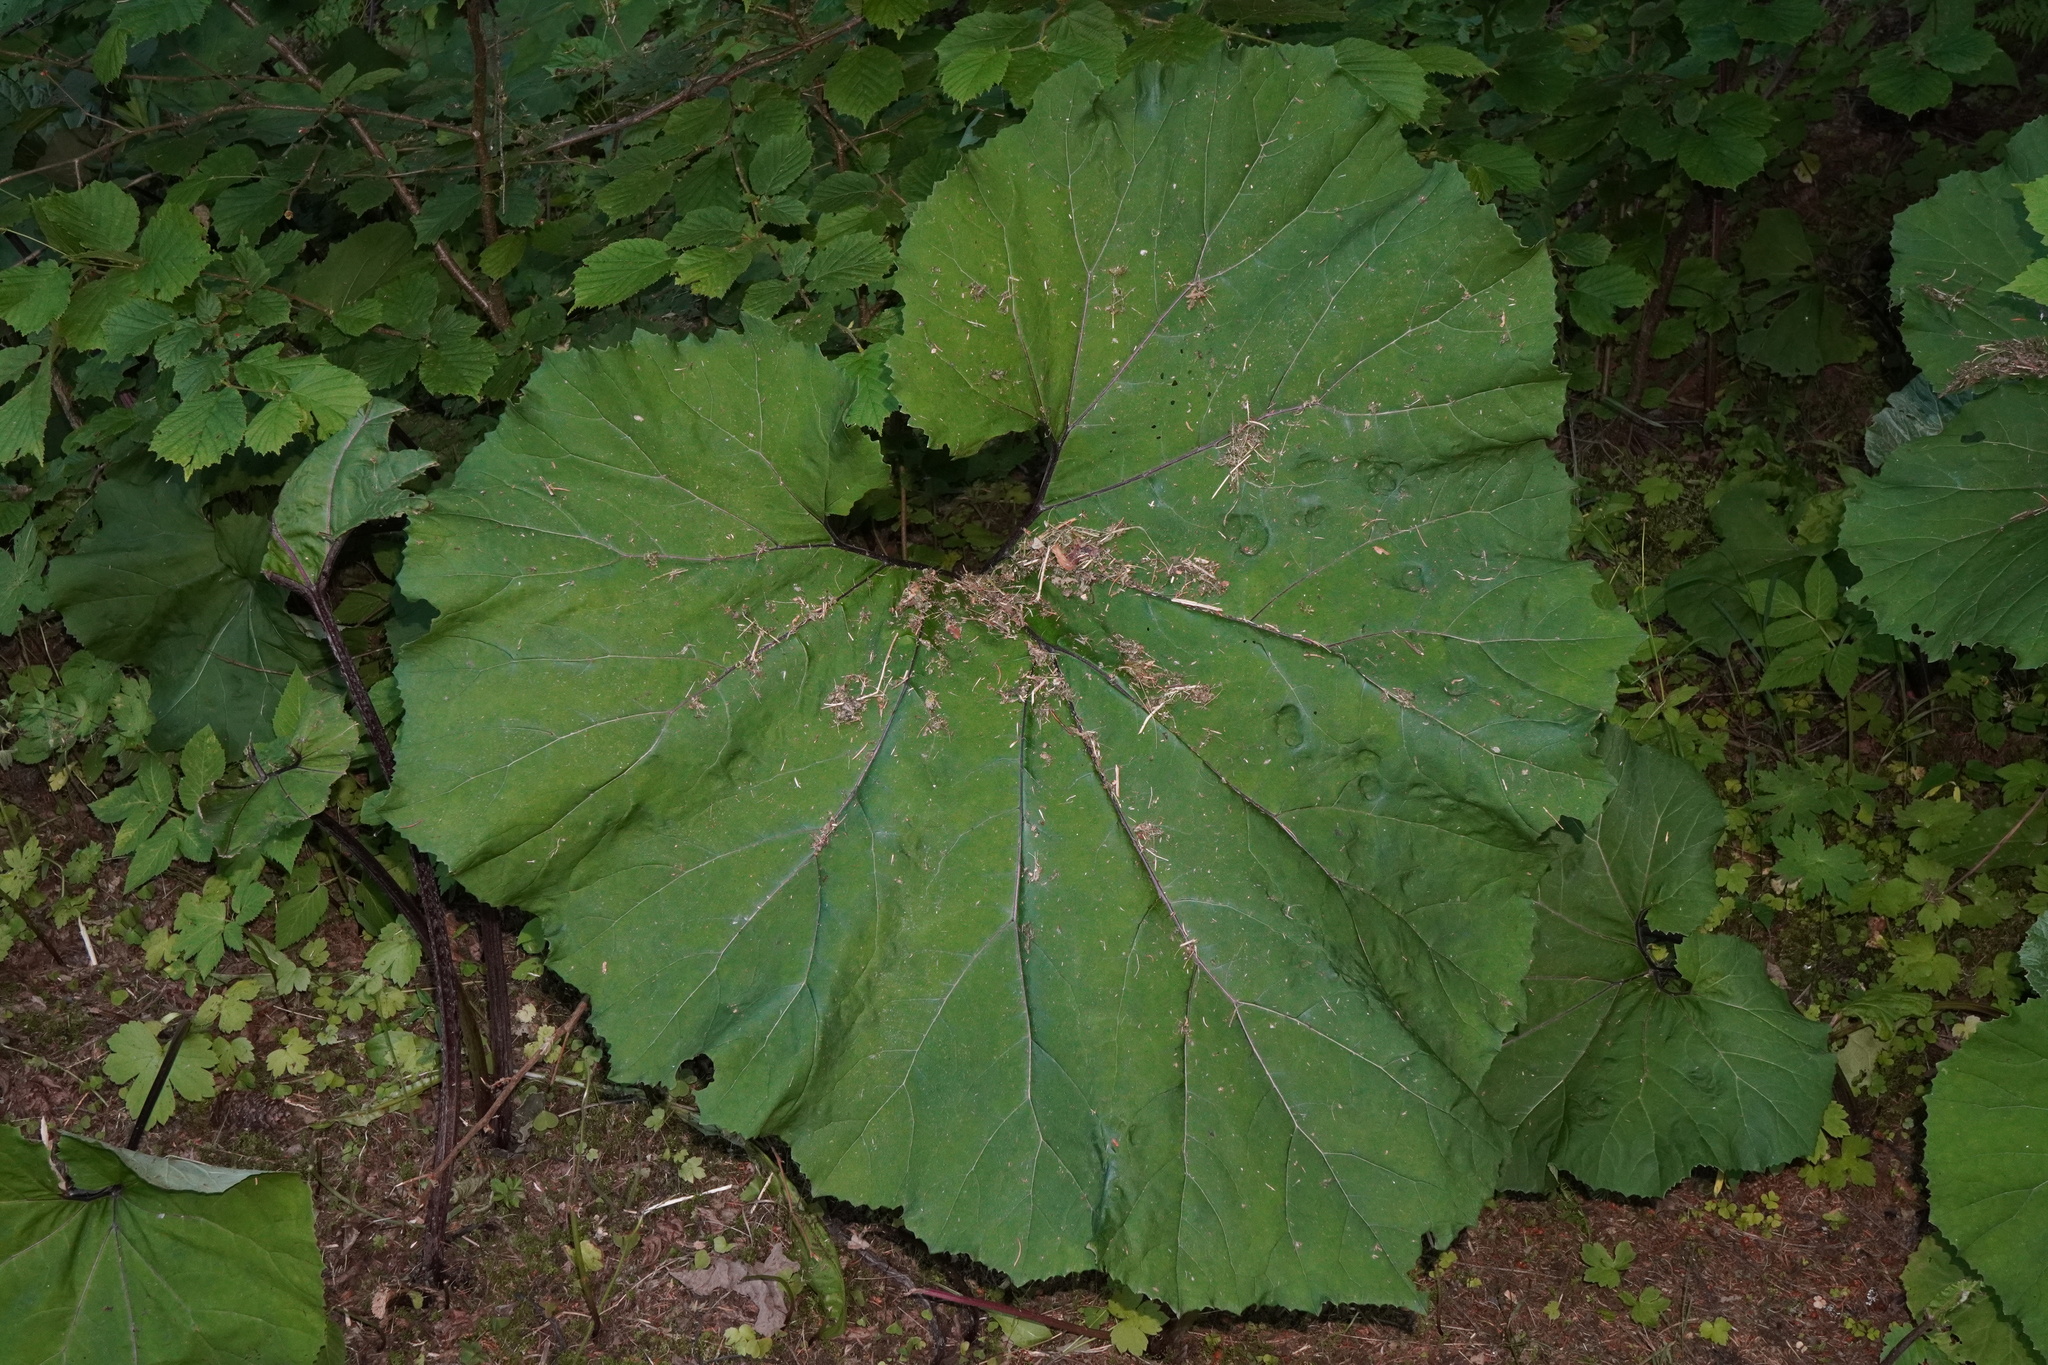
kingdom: Plantae
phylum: Tracheophyta
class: Magnoliopsida
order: Asterales
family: Asteraceae
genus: Petasites
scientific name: Petasites hybridus
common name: Butterbur
